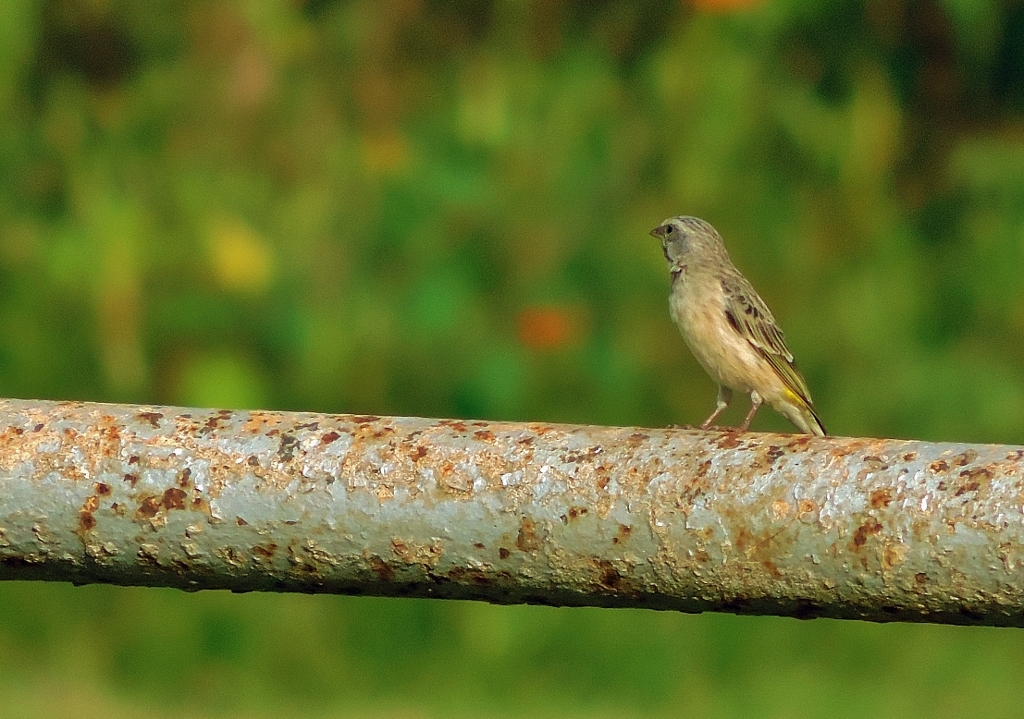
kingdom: Animalia
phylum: Chordata
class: Aves
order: Passeriformes
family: Fringillidae
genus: Crithagra
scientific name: Crithagra atrogularis
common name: Black-throated canary
